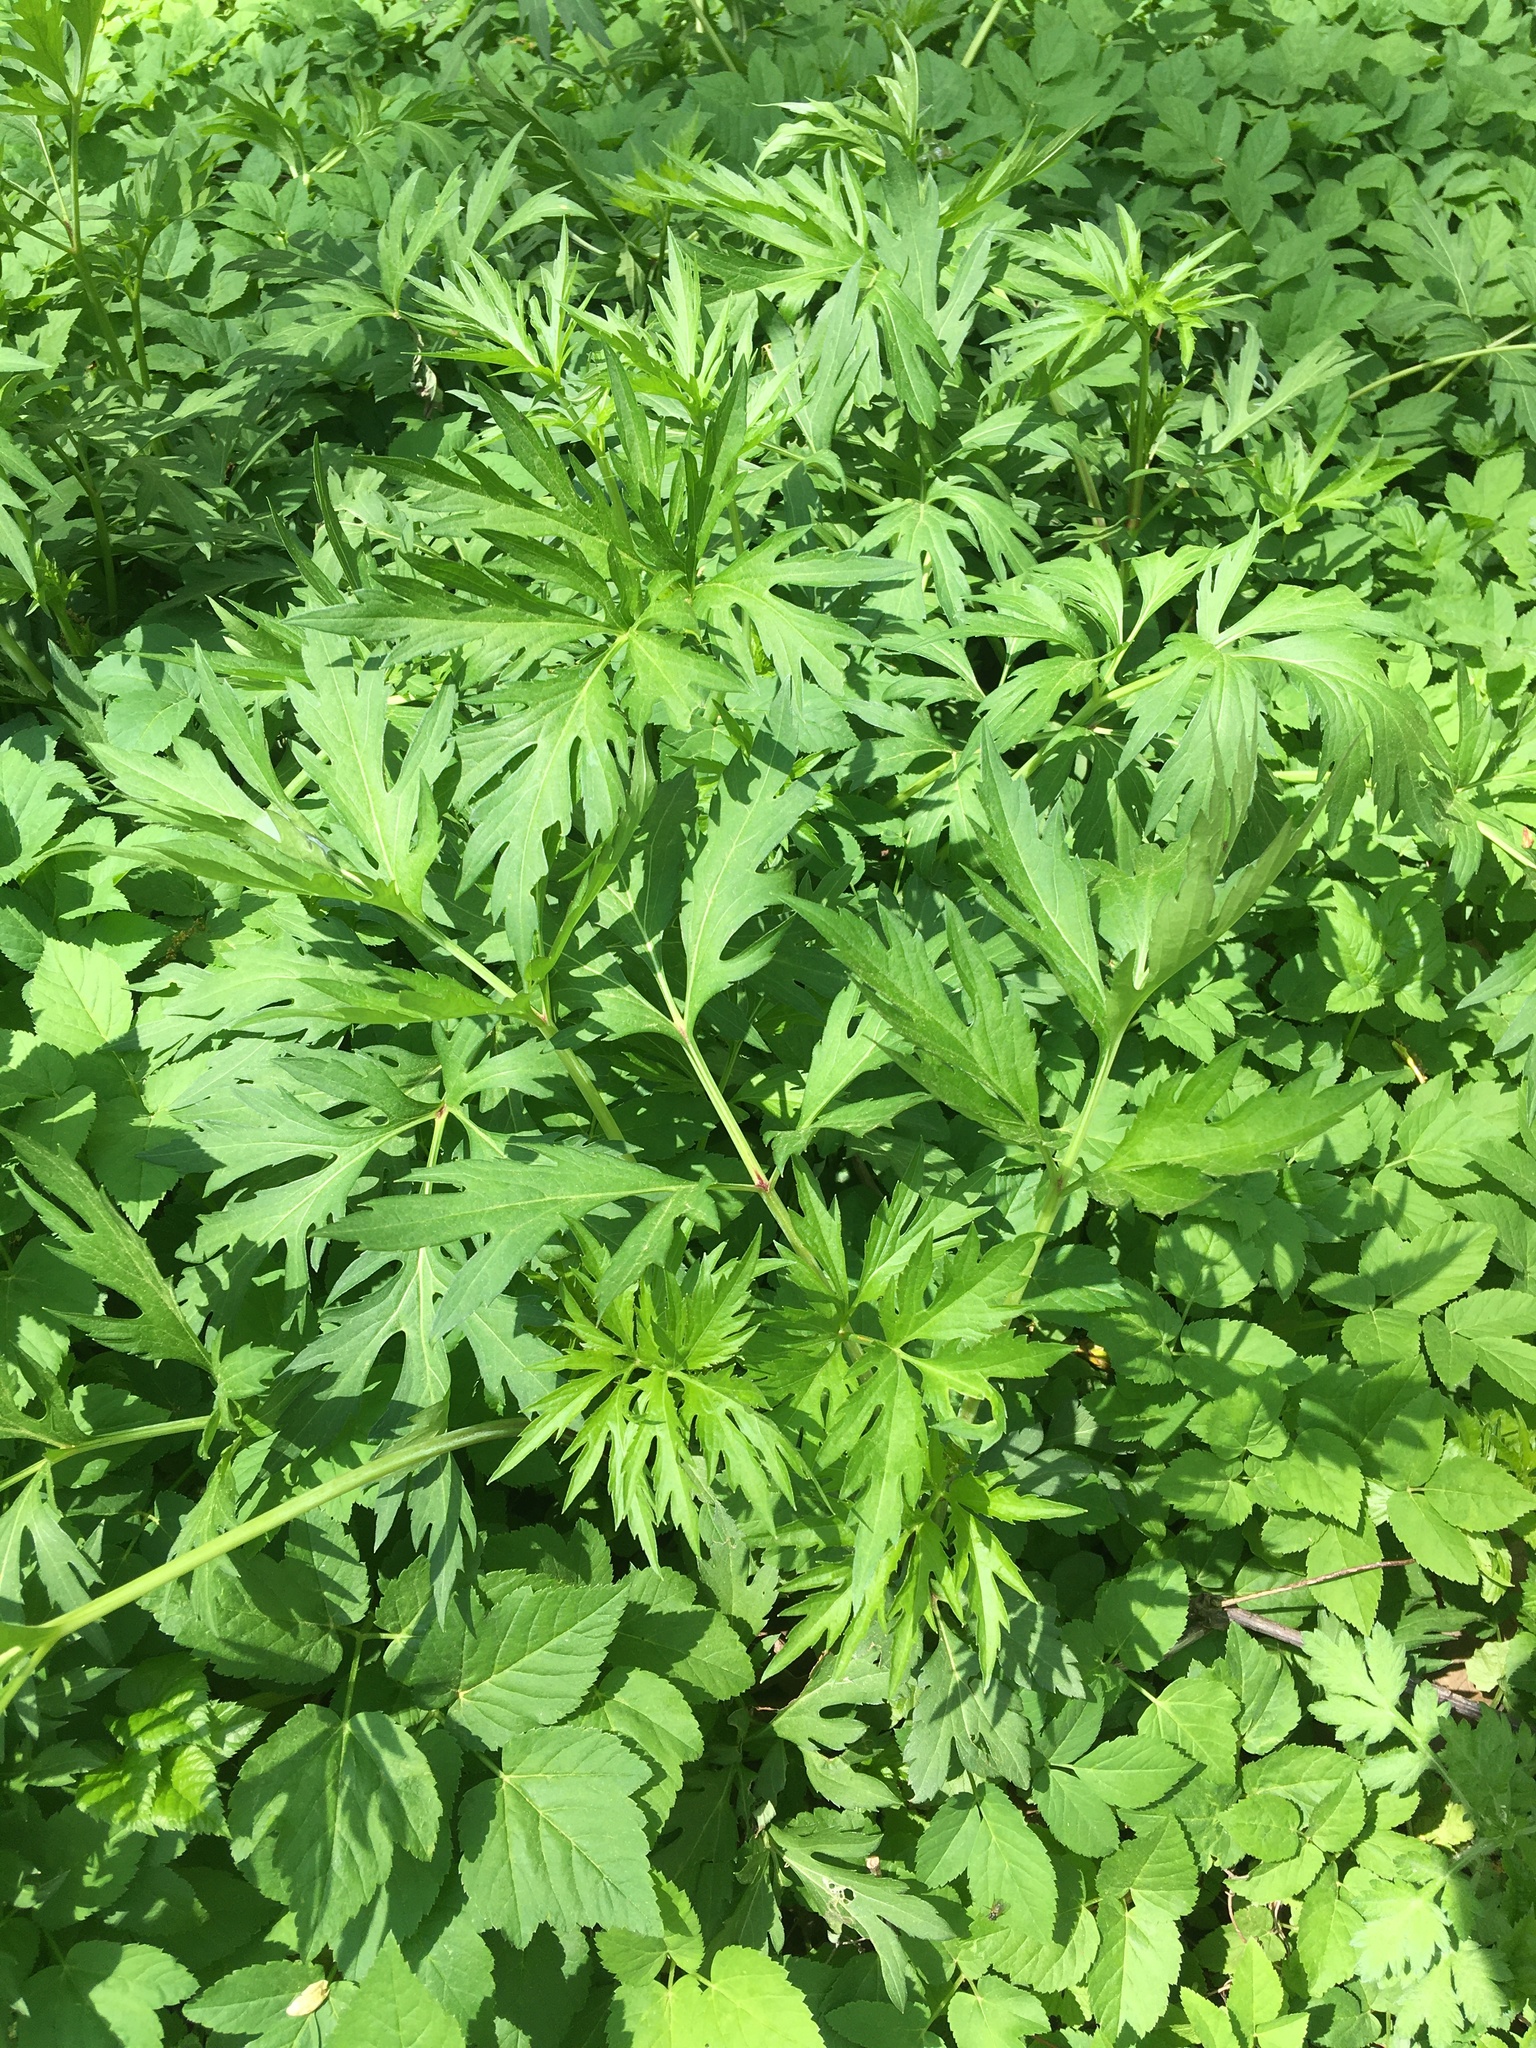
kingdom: Plantae
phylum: Tracheophyta
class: Magnoliopsida
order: Asterales
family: Asteraceae
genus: Rudbeckia
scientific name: Rudbeckia laciniata
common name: Coneflower
